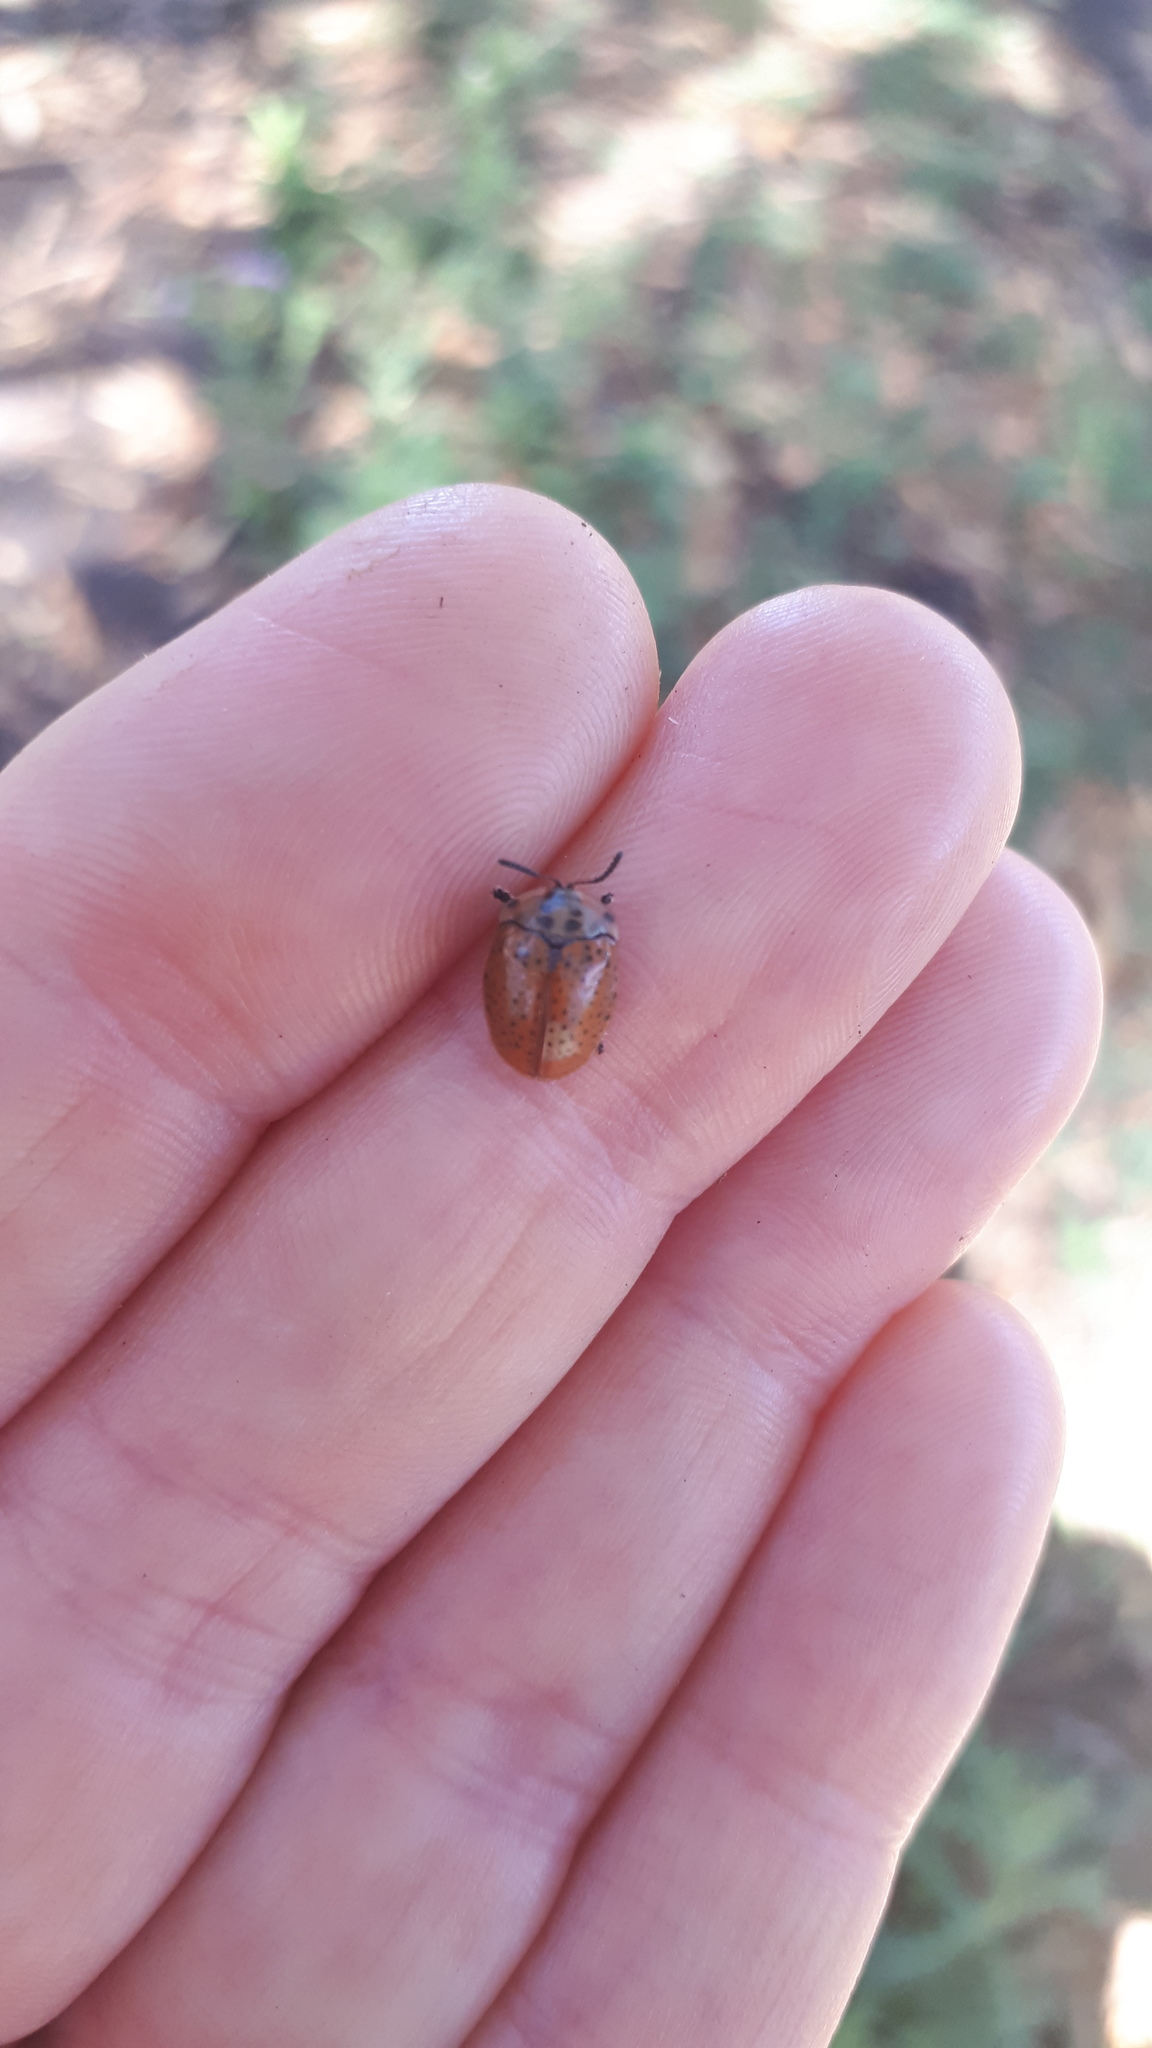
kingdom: Animalia
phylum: Arthropoda
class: Insecta
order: Coleoptera
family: Chrysomelidae
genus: Platyphora
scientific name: Platyphora
